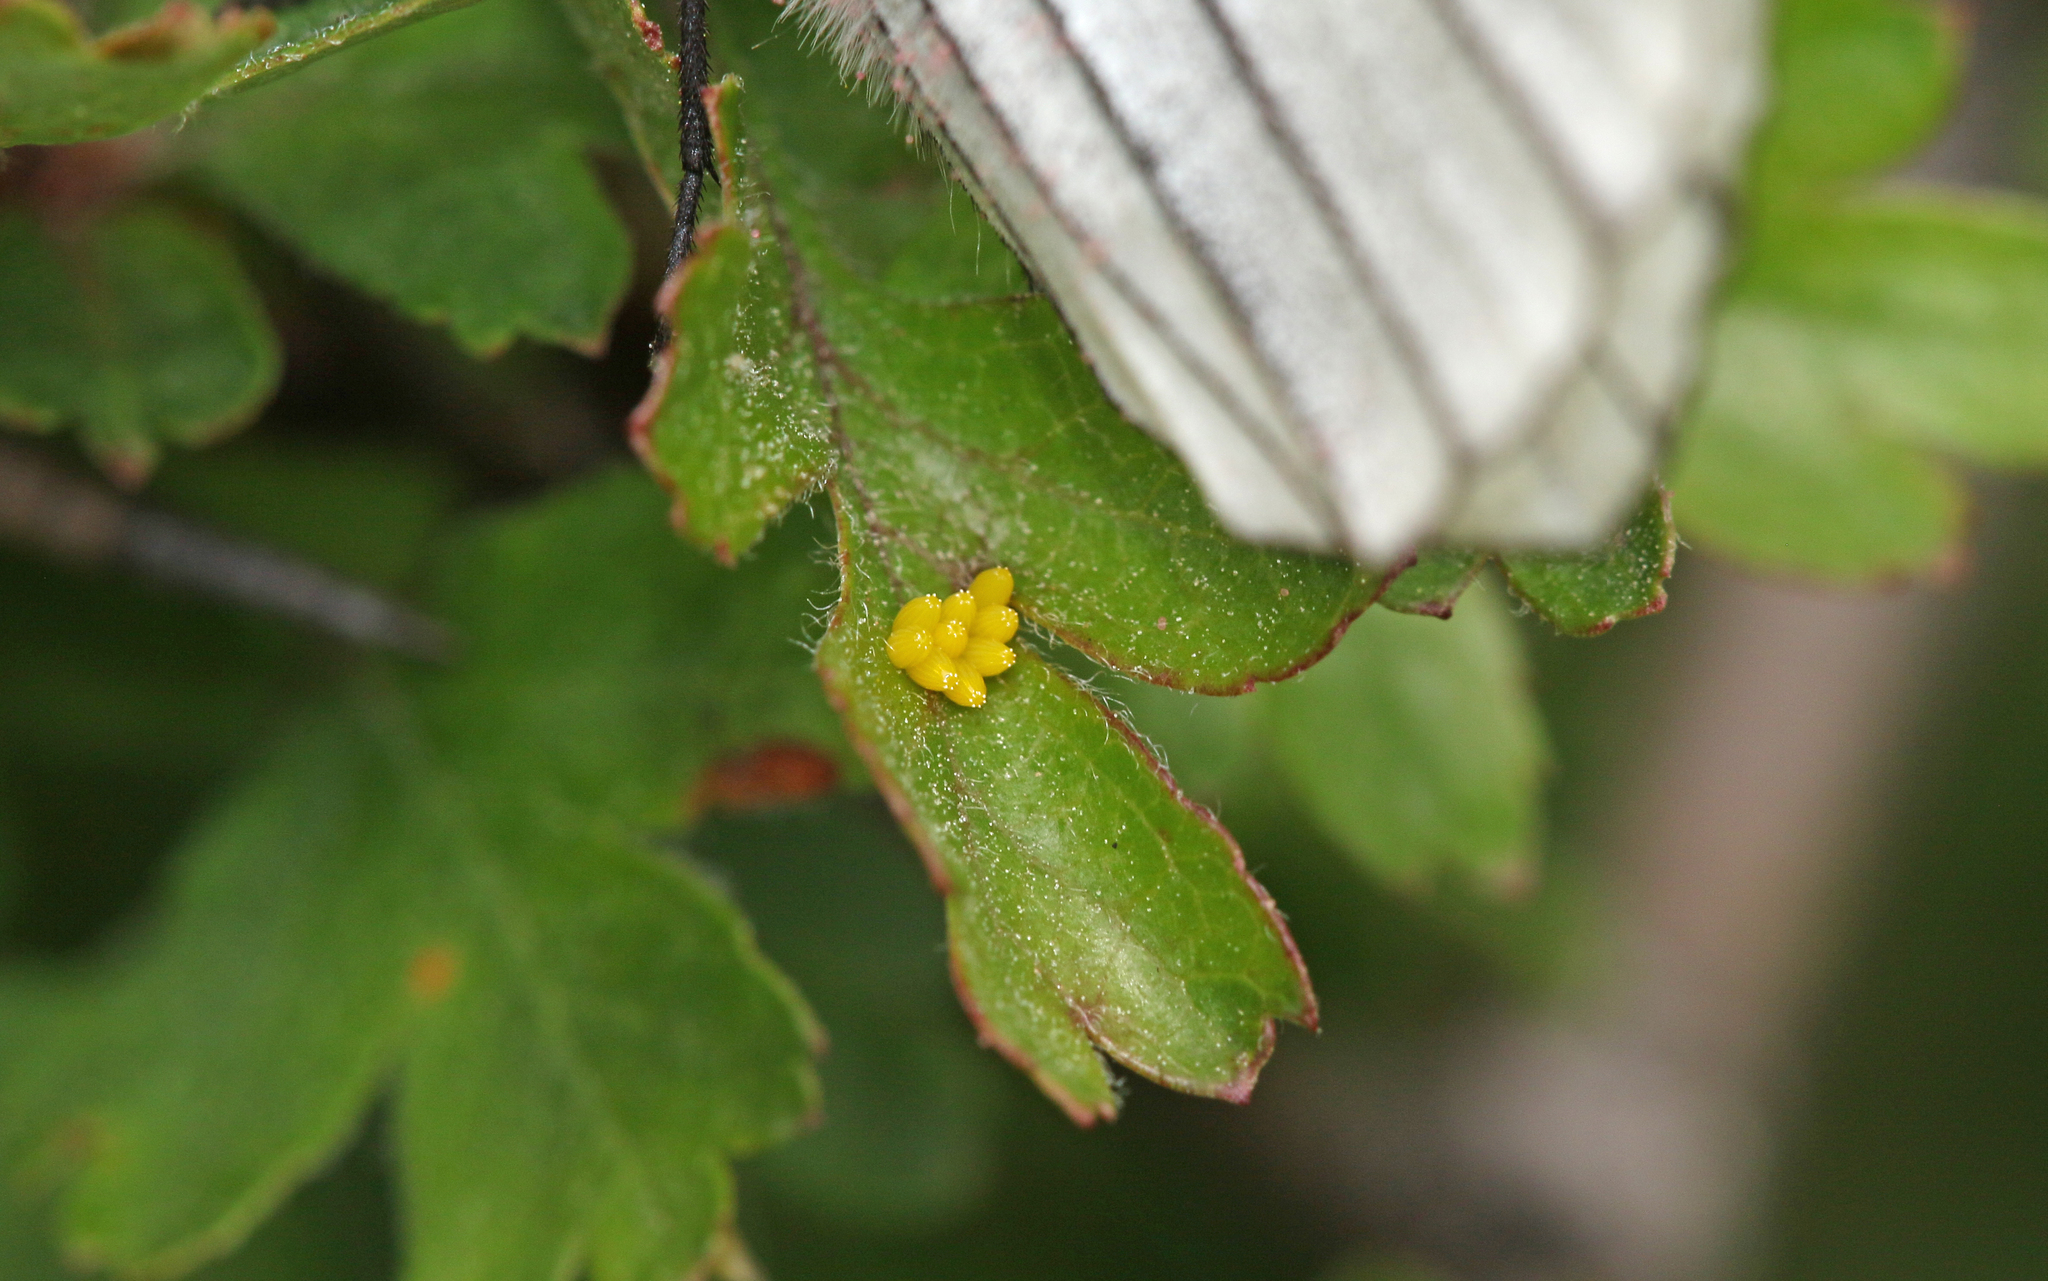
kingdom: Animalia
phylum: Arthropoda
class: Insecta
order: Lepidoptera
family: Pieridae
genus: Aporia
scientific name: Aporia crataegi
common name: Black-veined white
